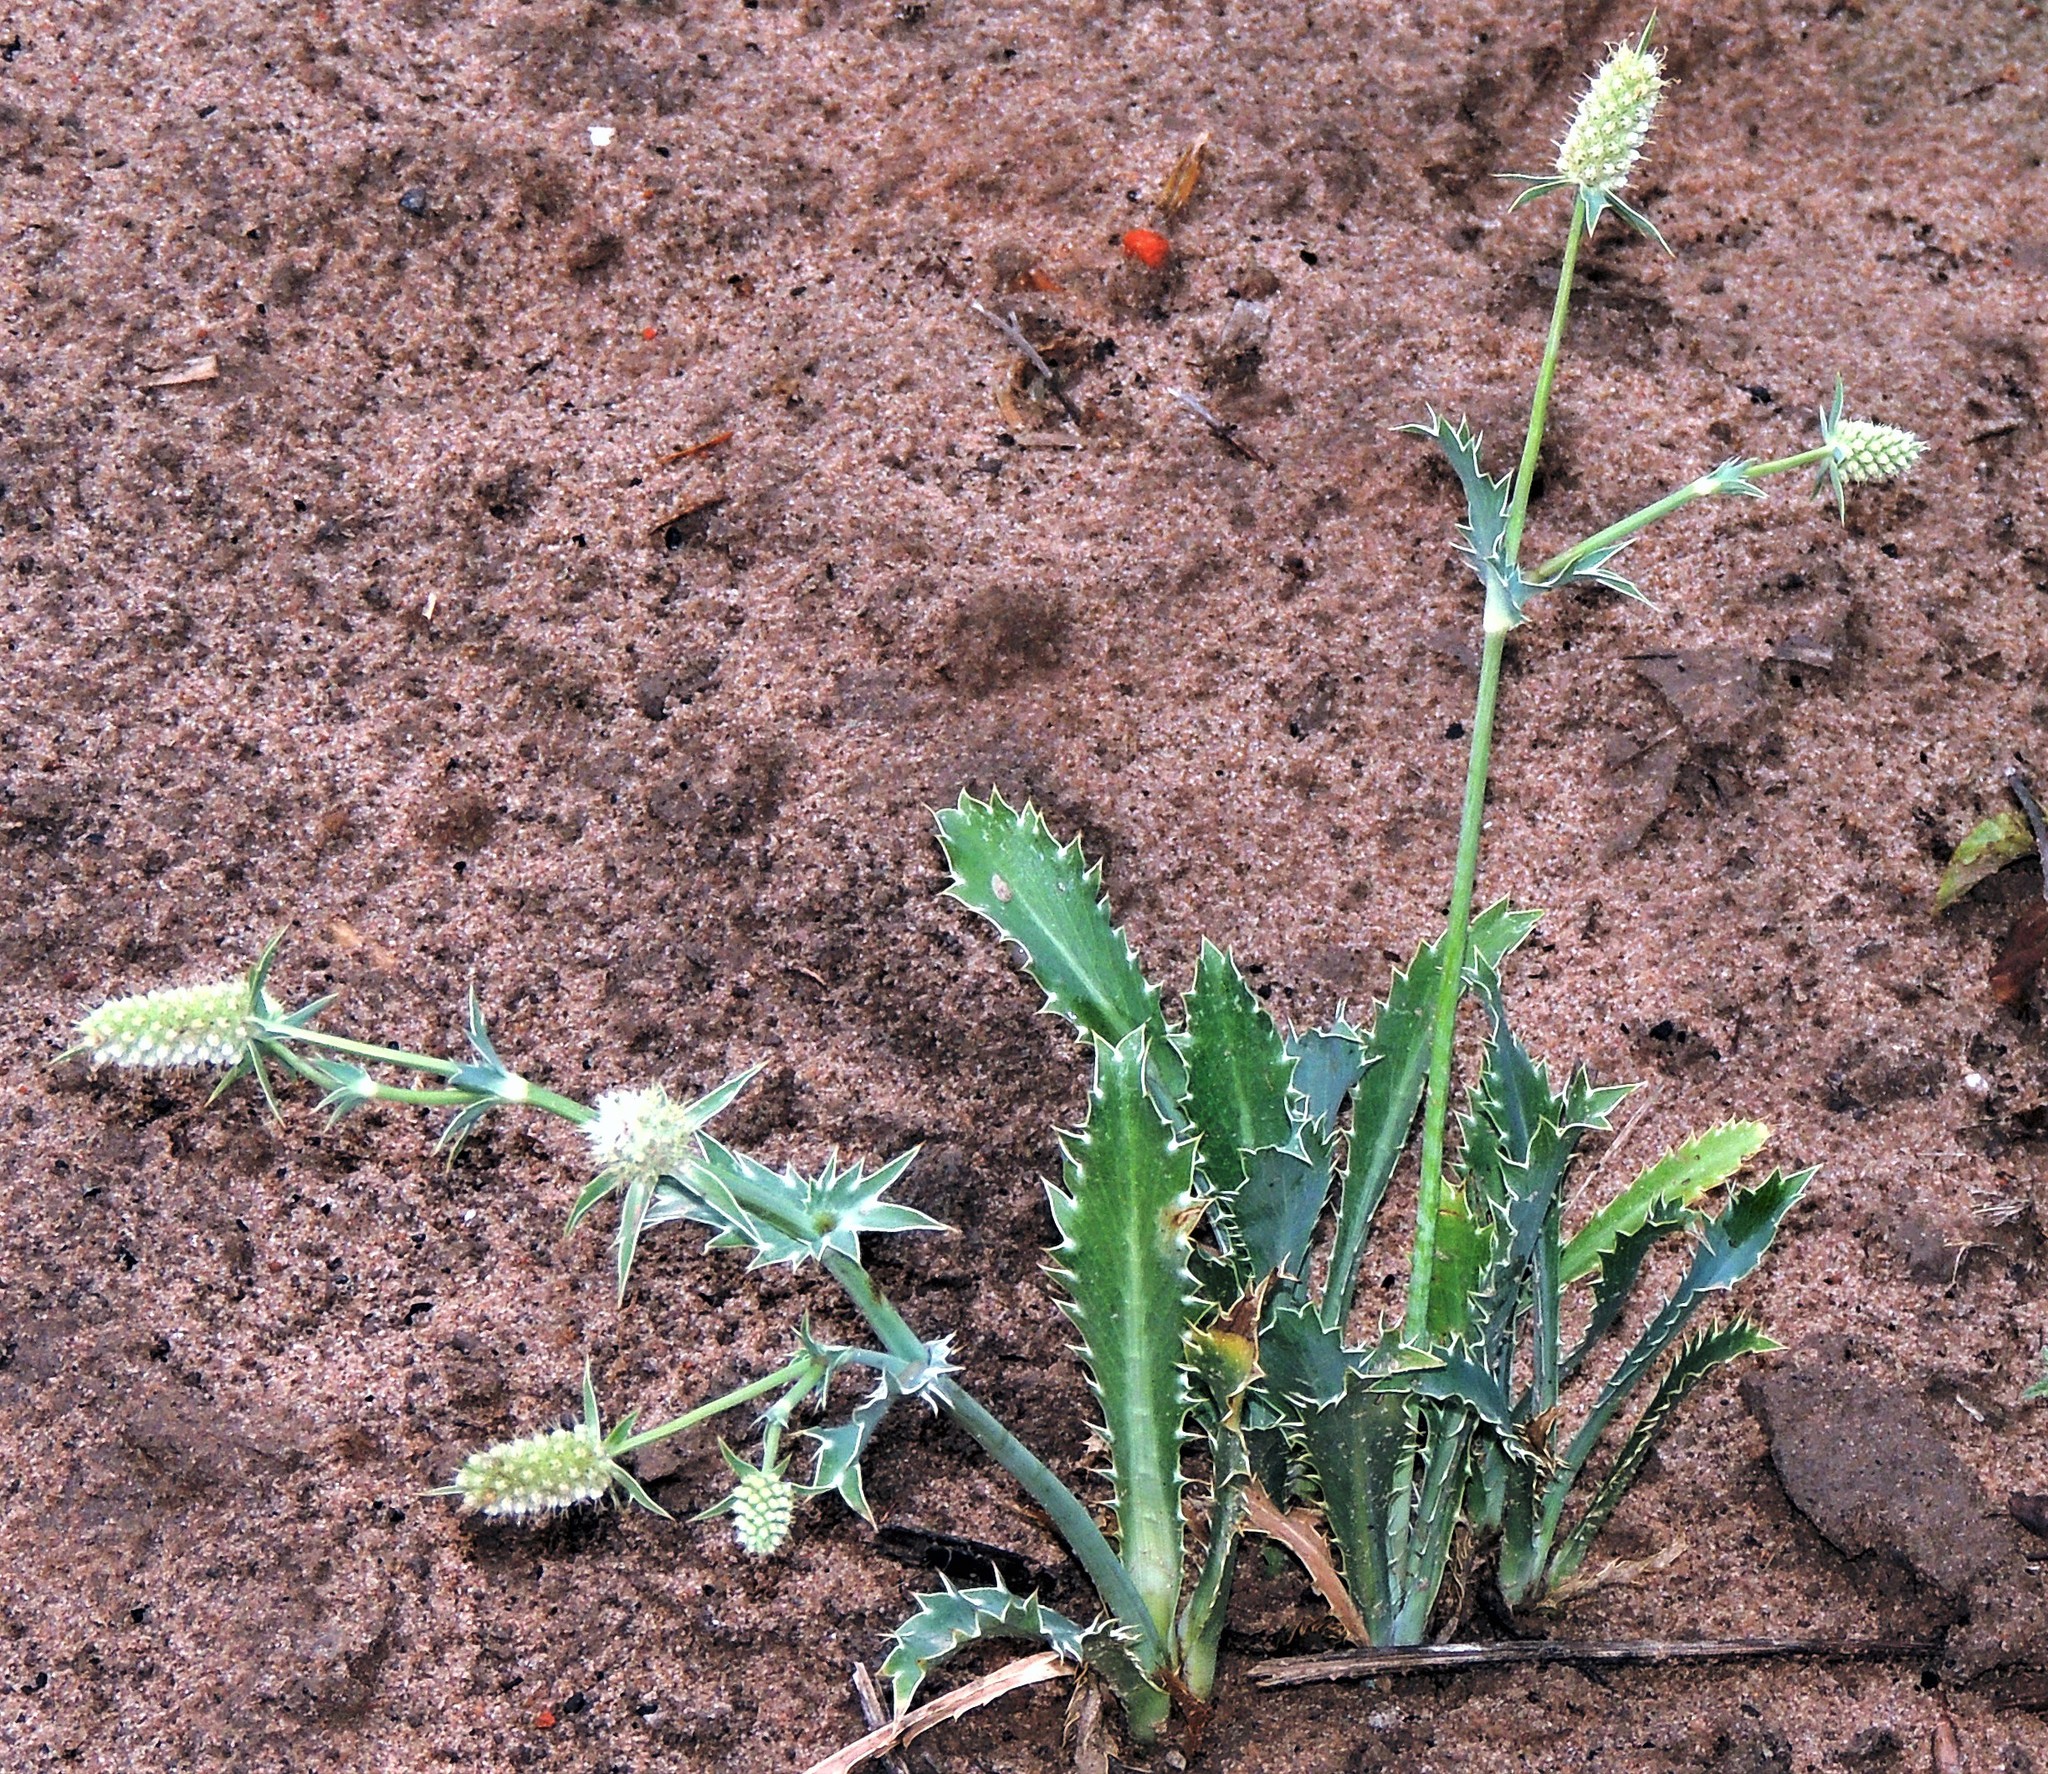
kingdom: Plantae
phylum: Tracheophyta
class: Magnoliopsida
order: Apiales
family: Apiaceae
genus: Eryngium
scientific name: Eryngium coronatum
